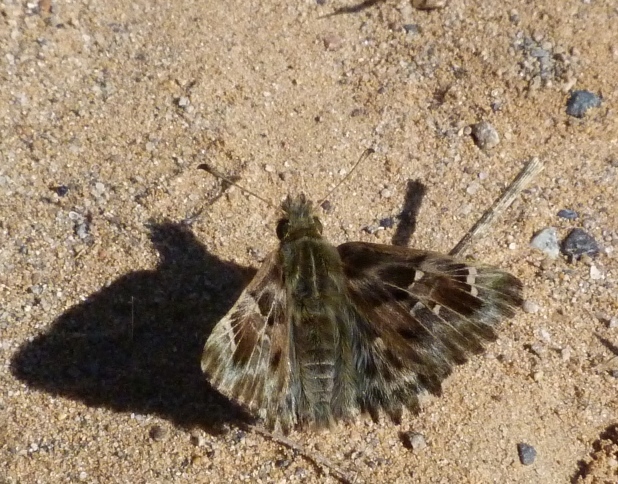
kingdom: Animalia
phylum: Arthropoda
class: Insecta
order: Lepidoptera
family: Hesperiidae
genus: Carcharodus
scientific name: Carcharodus alceae
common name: Mallow skipper
